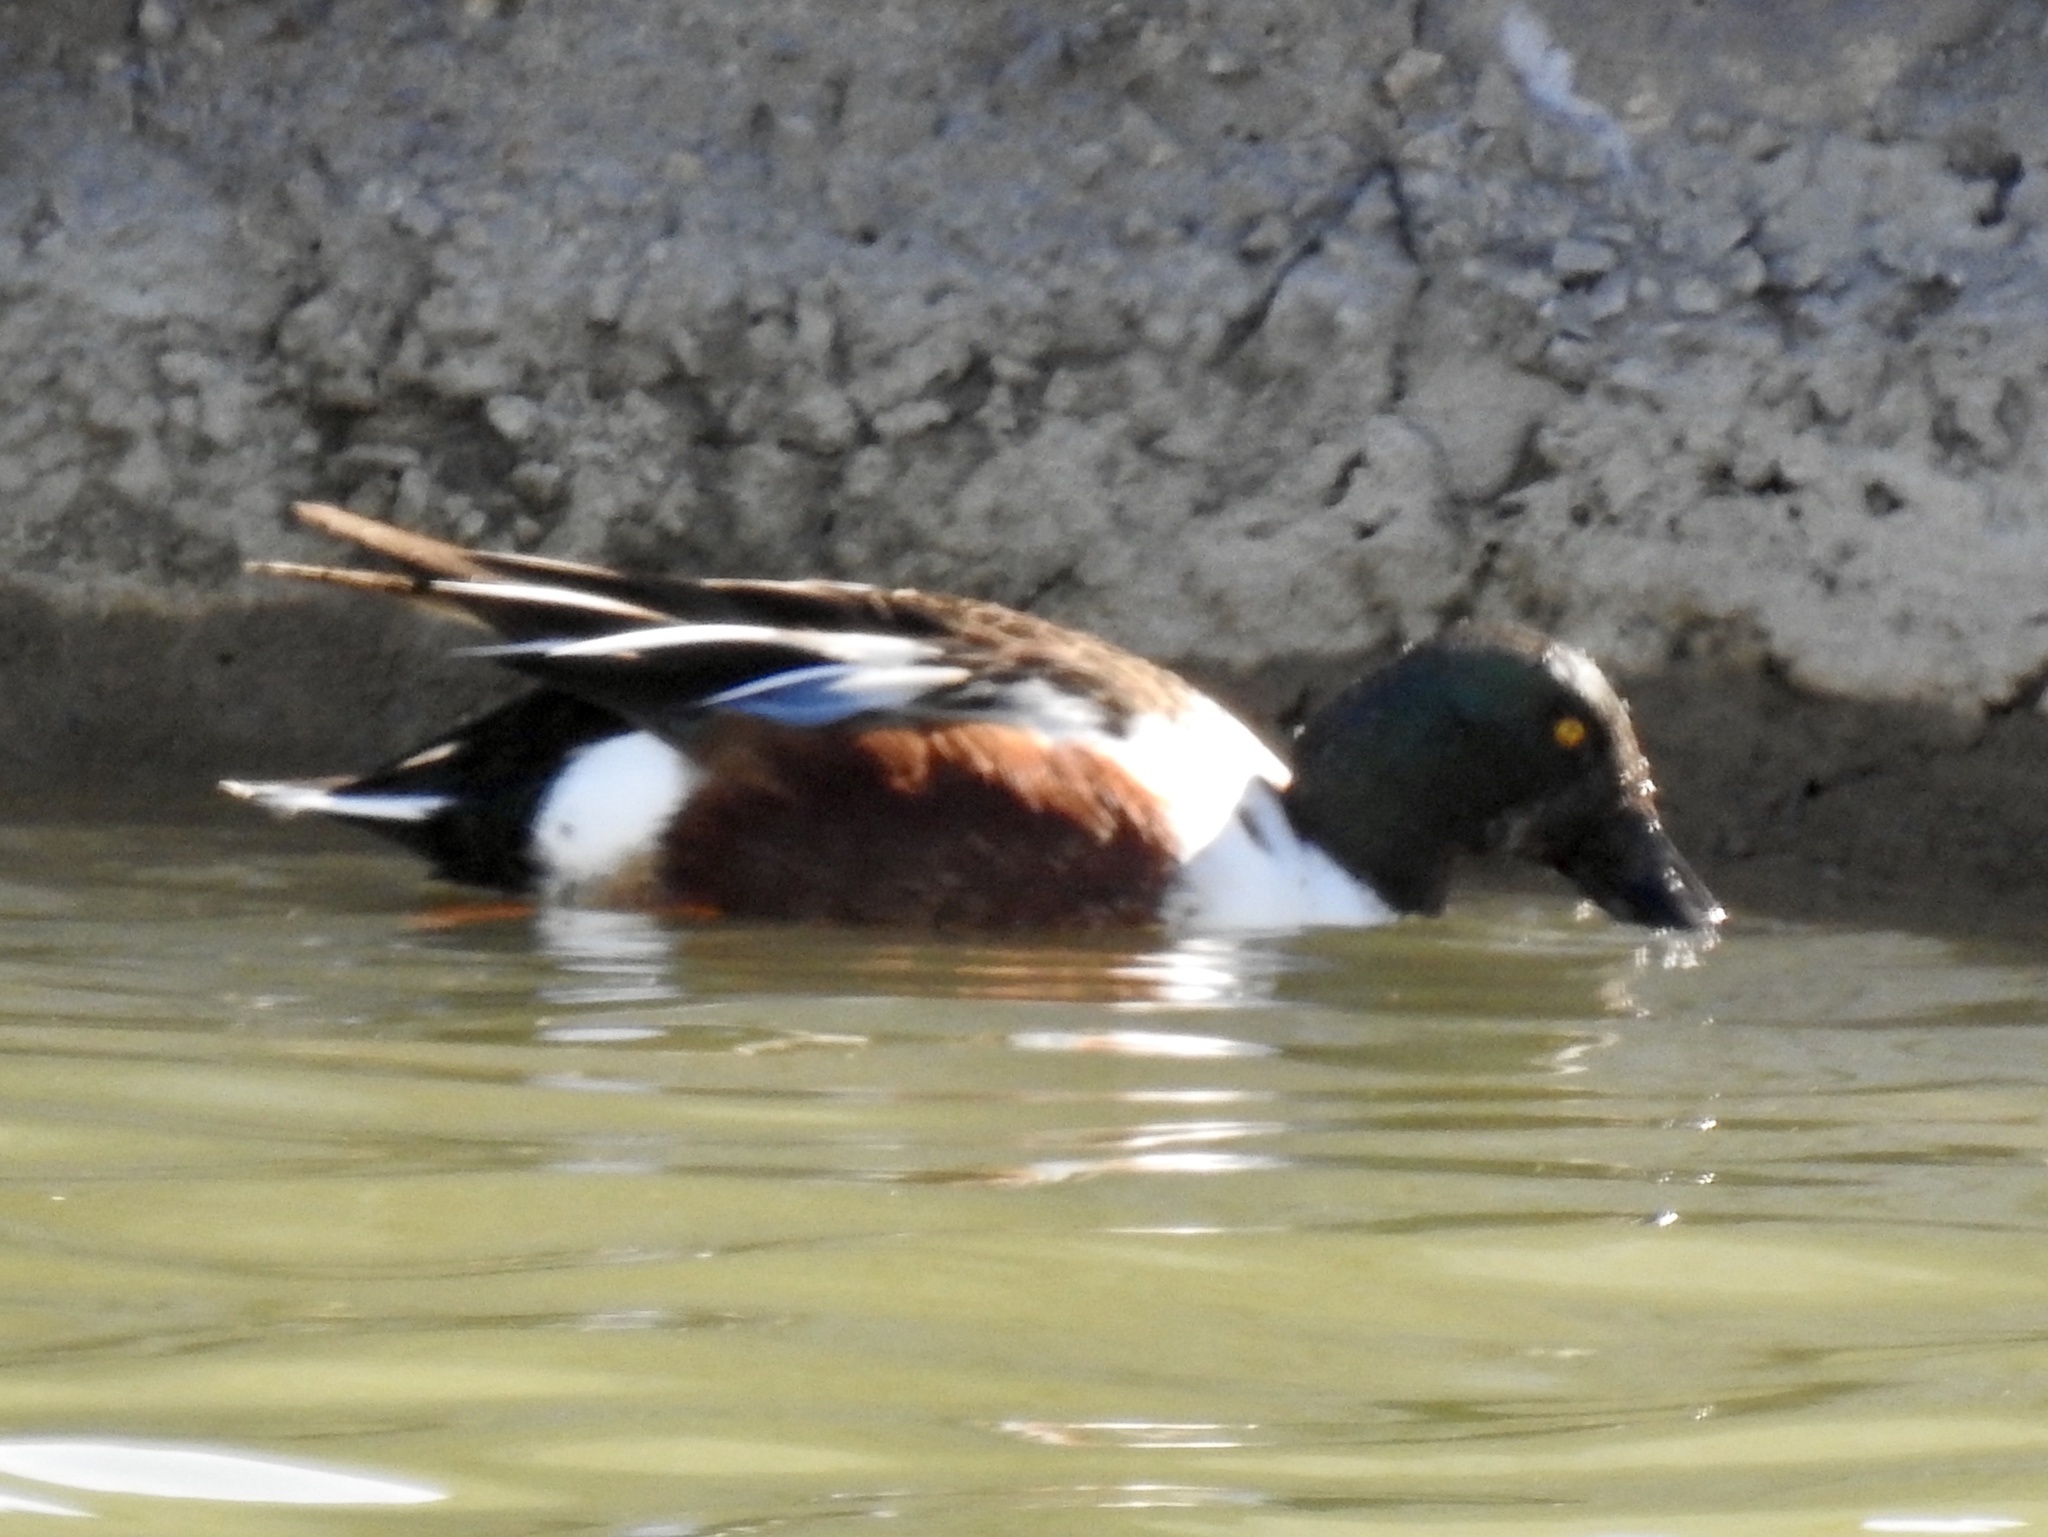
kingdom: Animalia
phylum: Chordata
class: Aves
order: Anseriformes
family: Anatidae
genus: Spatula
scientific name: Spatula clypeata
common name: Northern shoveler
